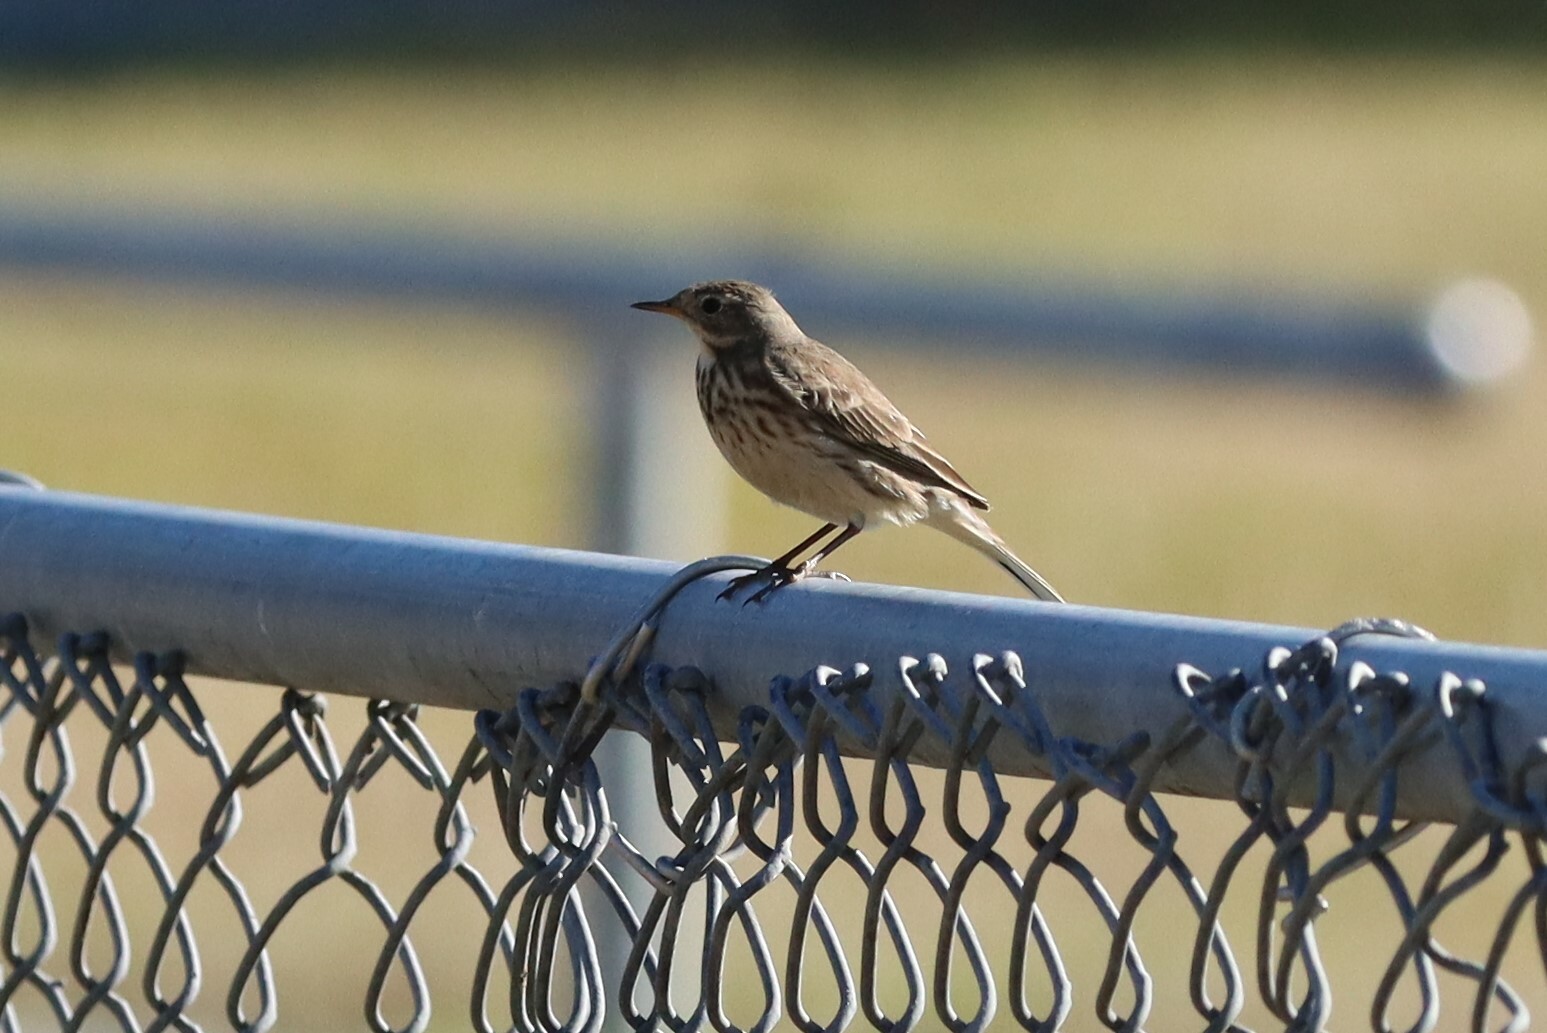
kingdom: Animalia
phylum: Chordata
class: Aves
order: Passeriformes
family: Motacillidae
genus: Anthus
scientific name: Anthus rubescens
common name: Buff-bellied pipit
